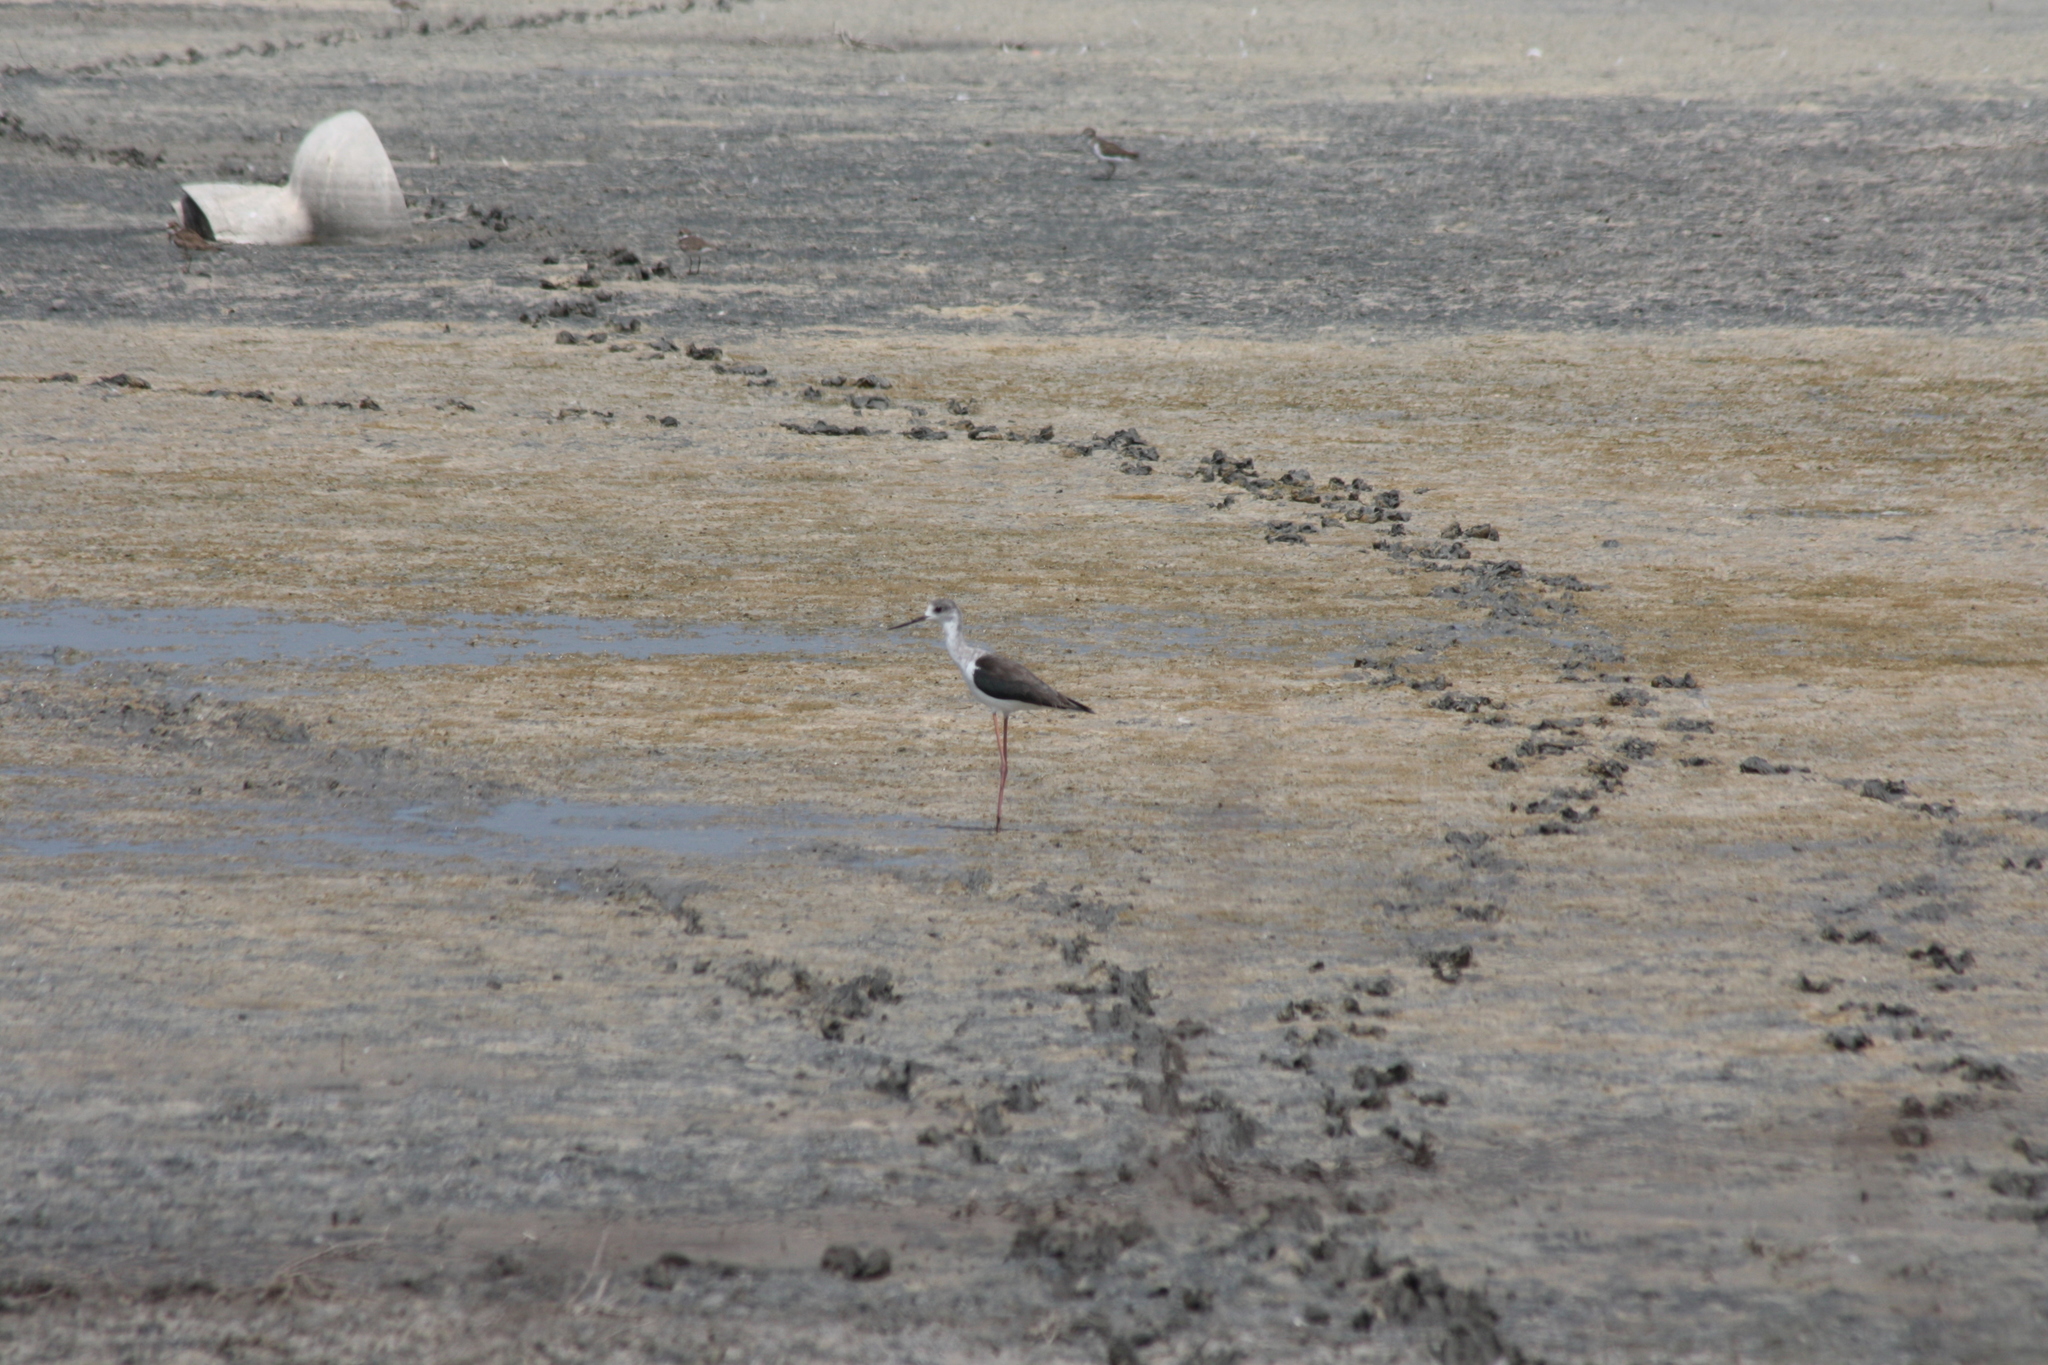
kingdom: Animalia
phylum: Chordata
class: Aves
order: Charadriiformes
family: Recurvirostridae
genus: Himantopus
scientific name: Himantopus himantopus
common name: Black-winged stilt
